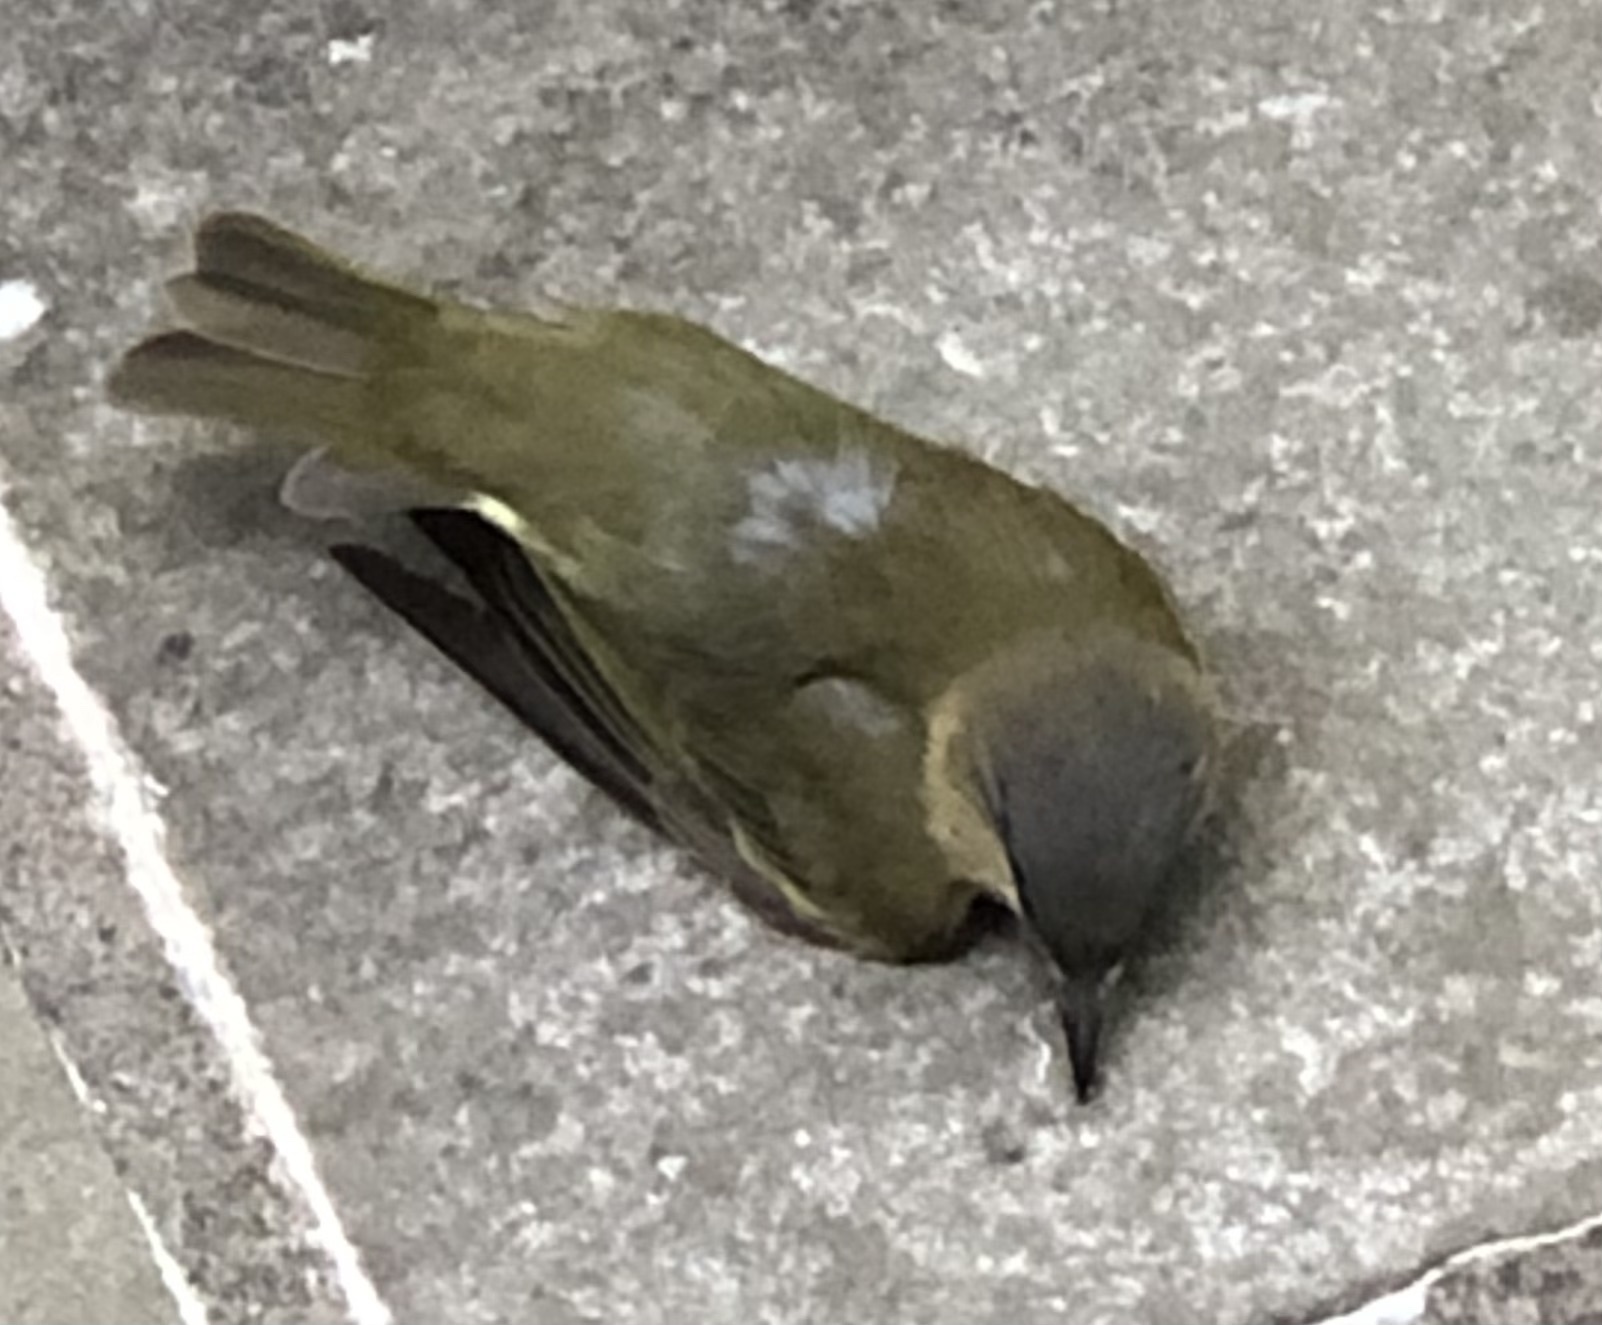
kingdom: Animalia
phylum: Chordata
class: Aves
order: Passeriformes
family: Vireonidae
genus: Vireo
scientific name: Vireo olivaceus
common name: Red-eyed vireo
